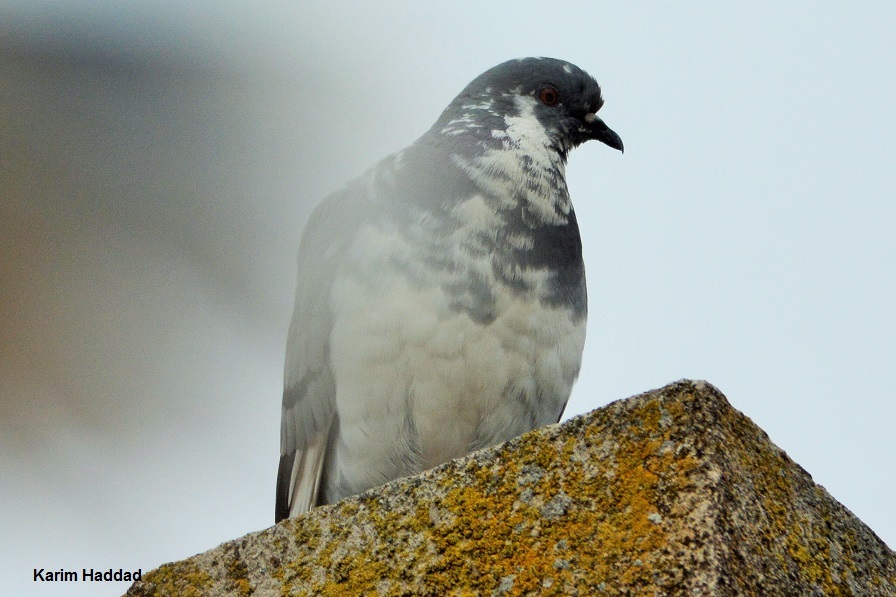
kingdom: Animalia
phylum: Chordata
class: Aves
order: Columbiformes
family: Columbidae
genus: Columba
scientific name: Columba livia
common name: Rock pigeon
